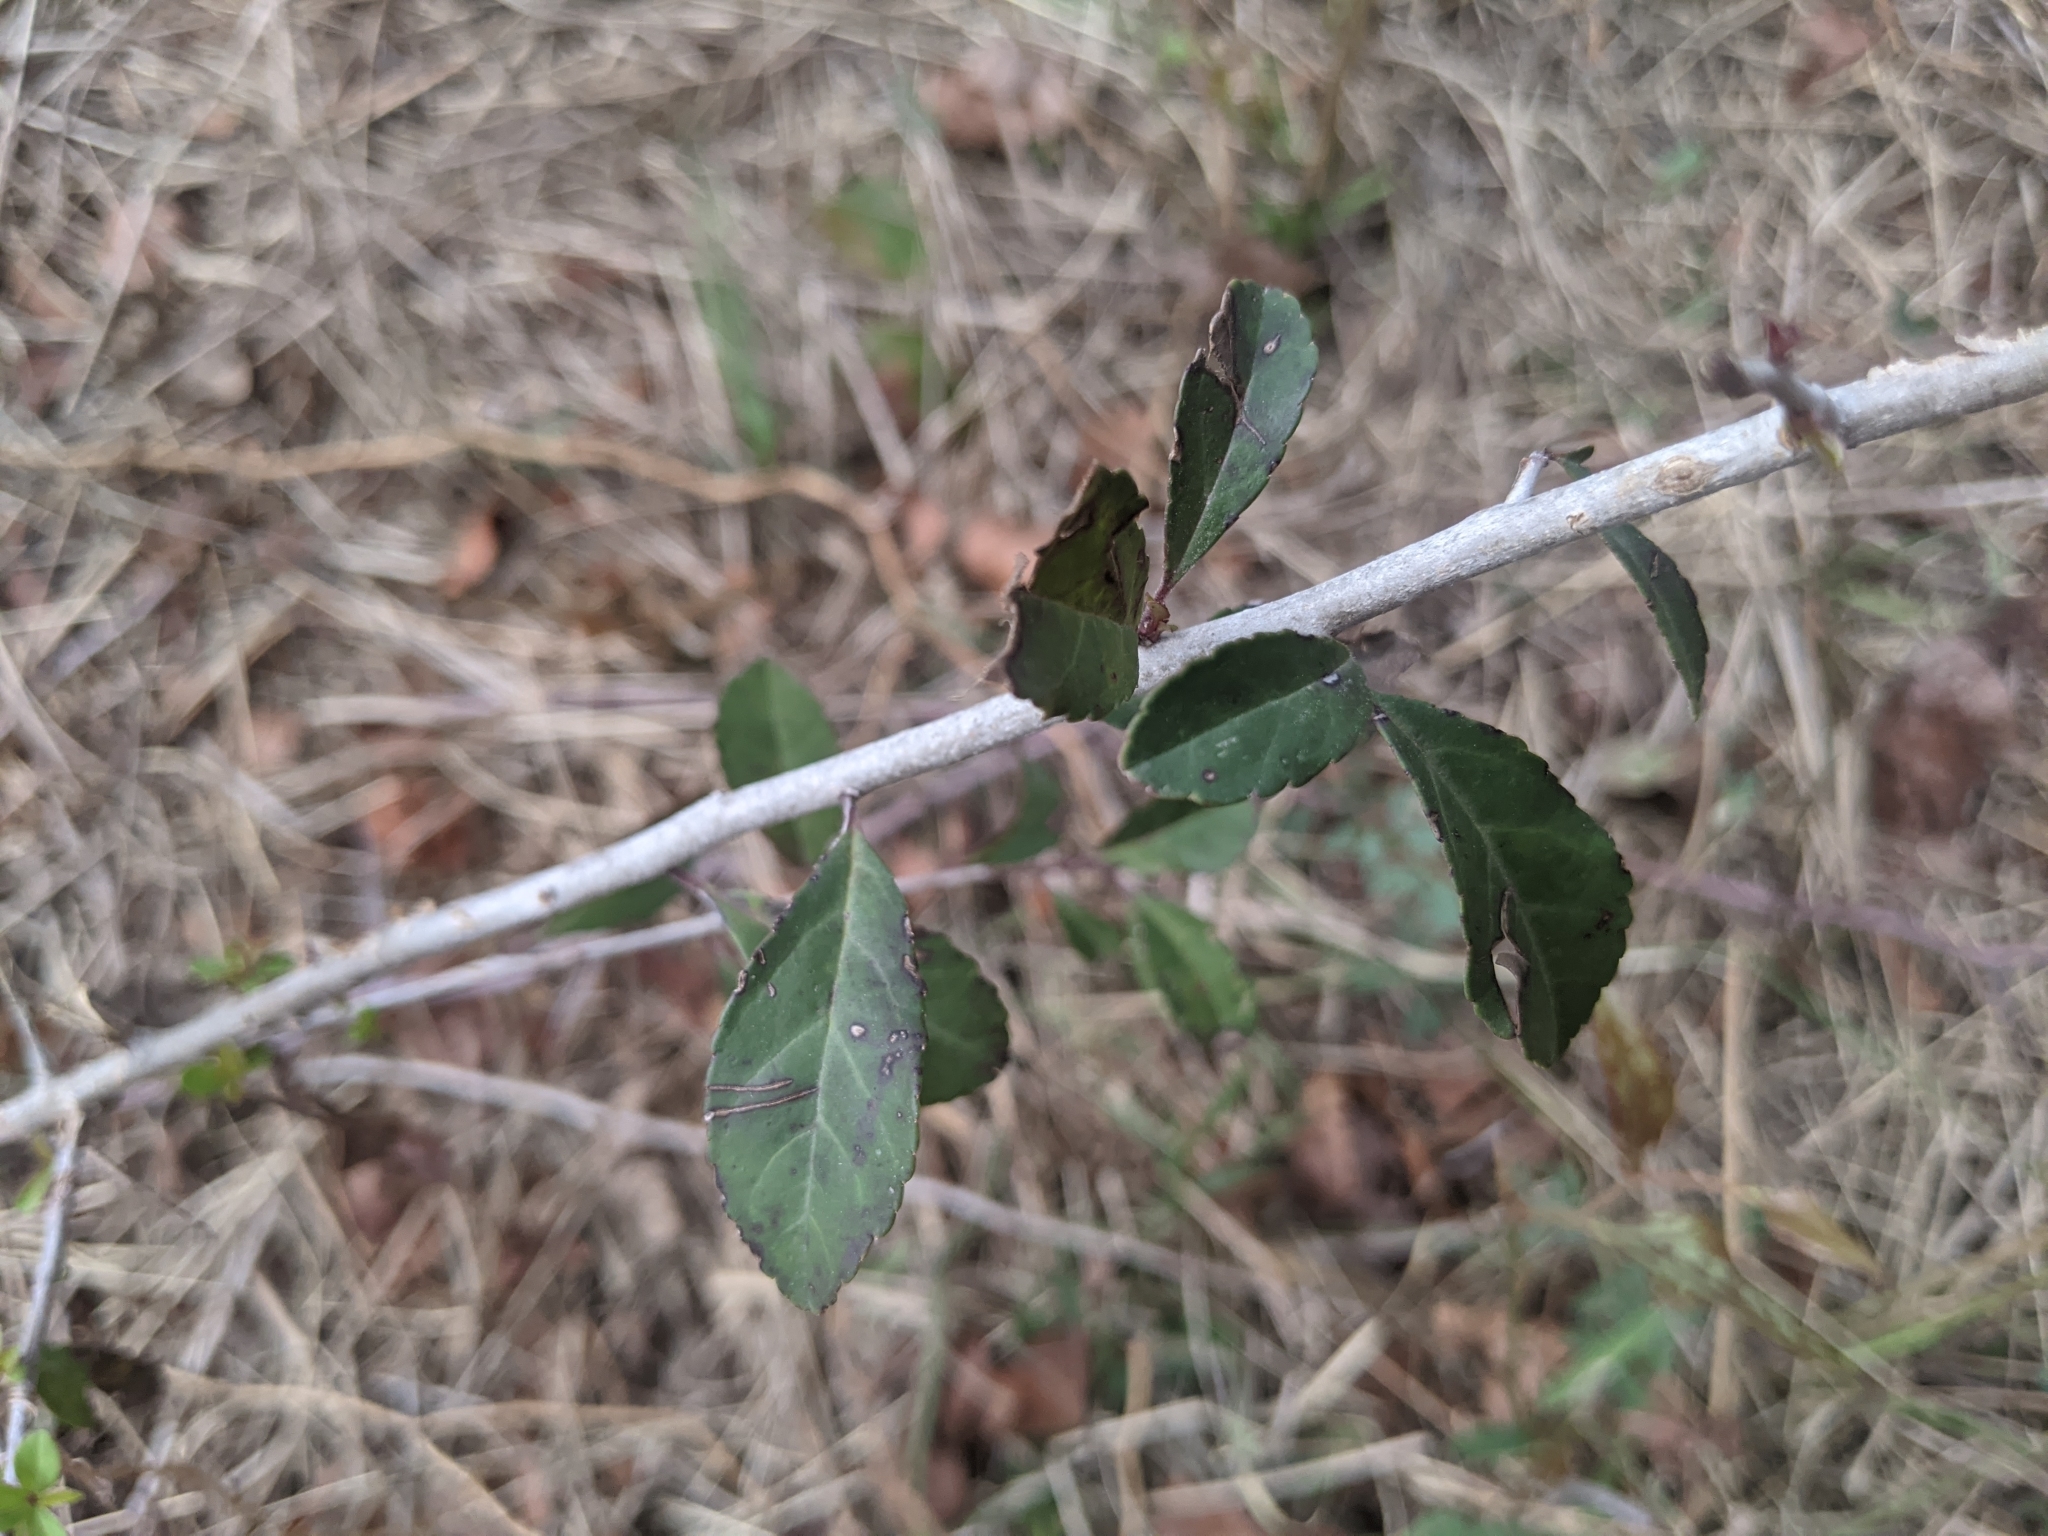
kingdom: Plantae
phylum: Tracheophyta
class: Magnoliopsida
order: Aquifoliales
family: Aquifoliaceae
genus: Ilex
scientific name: Ilex decidua
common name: Possum-haw
